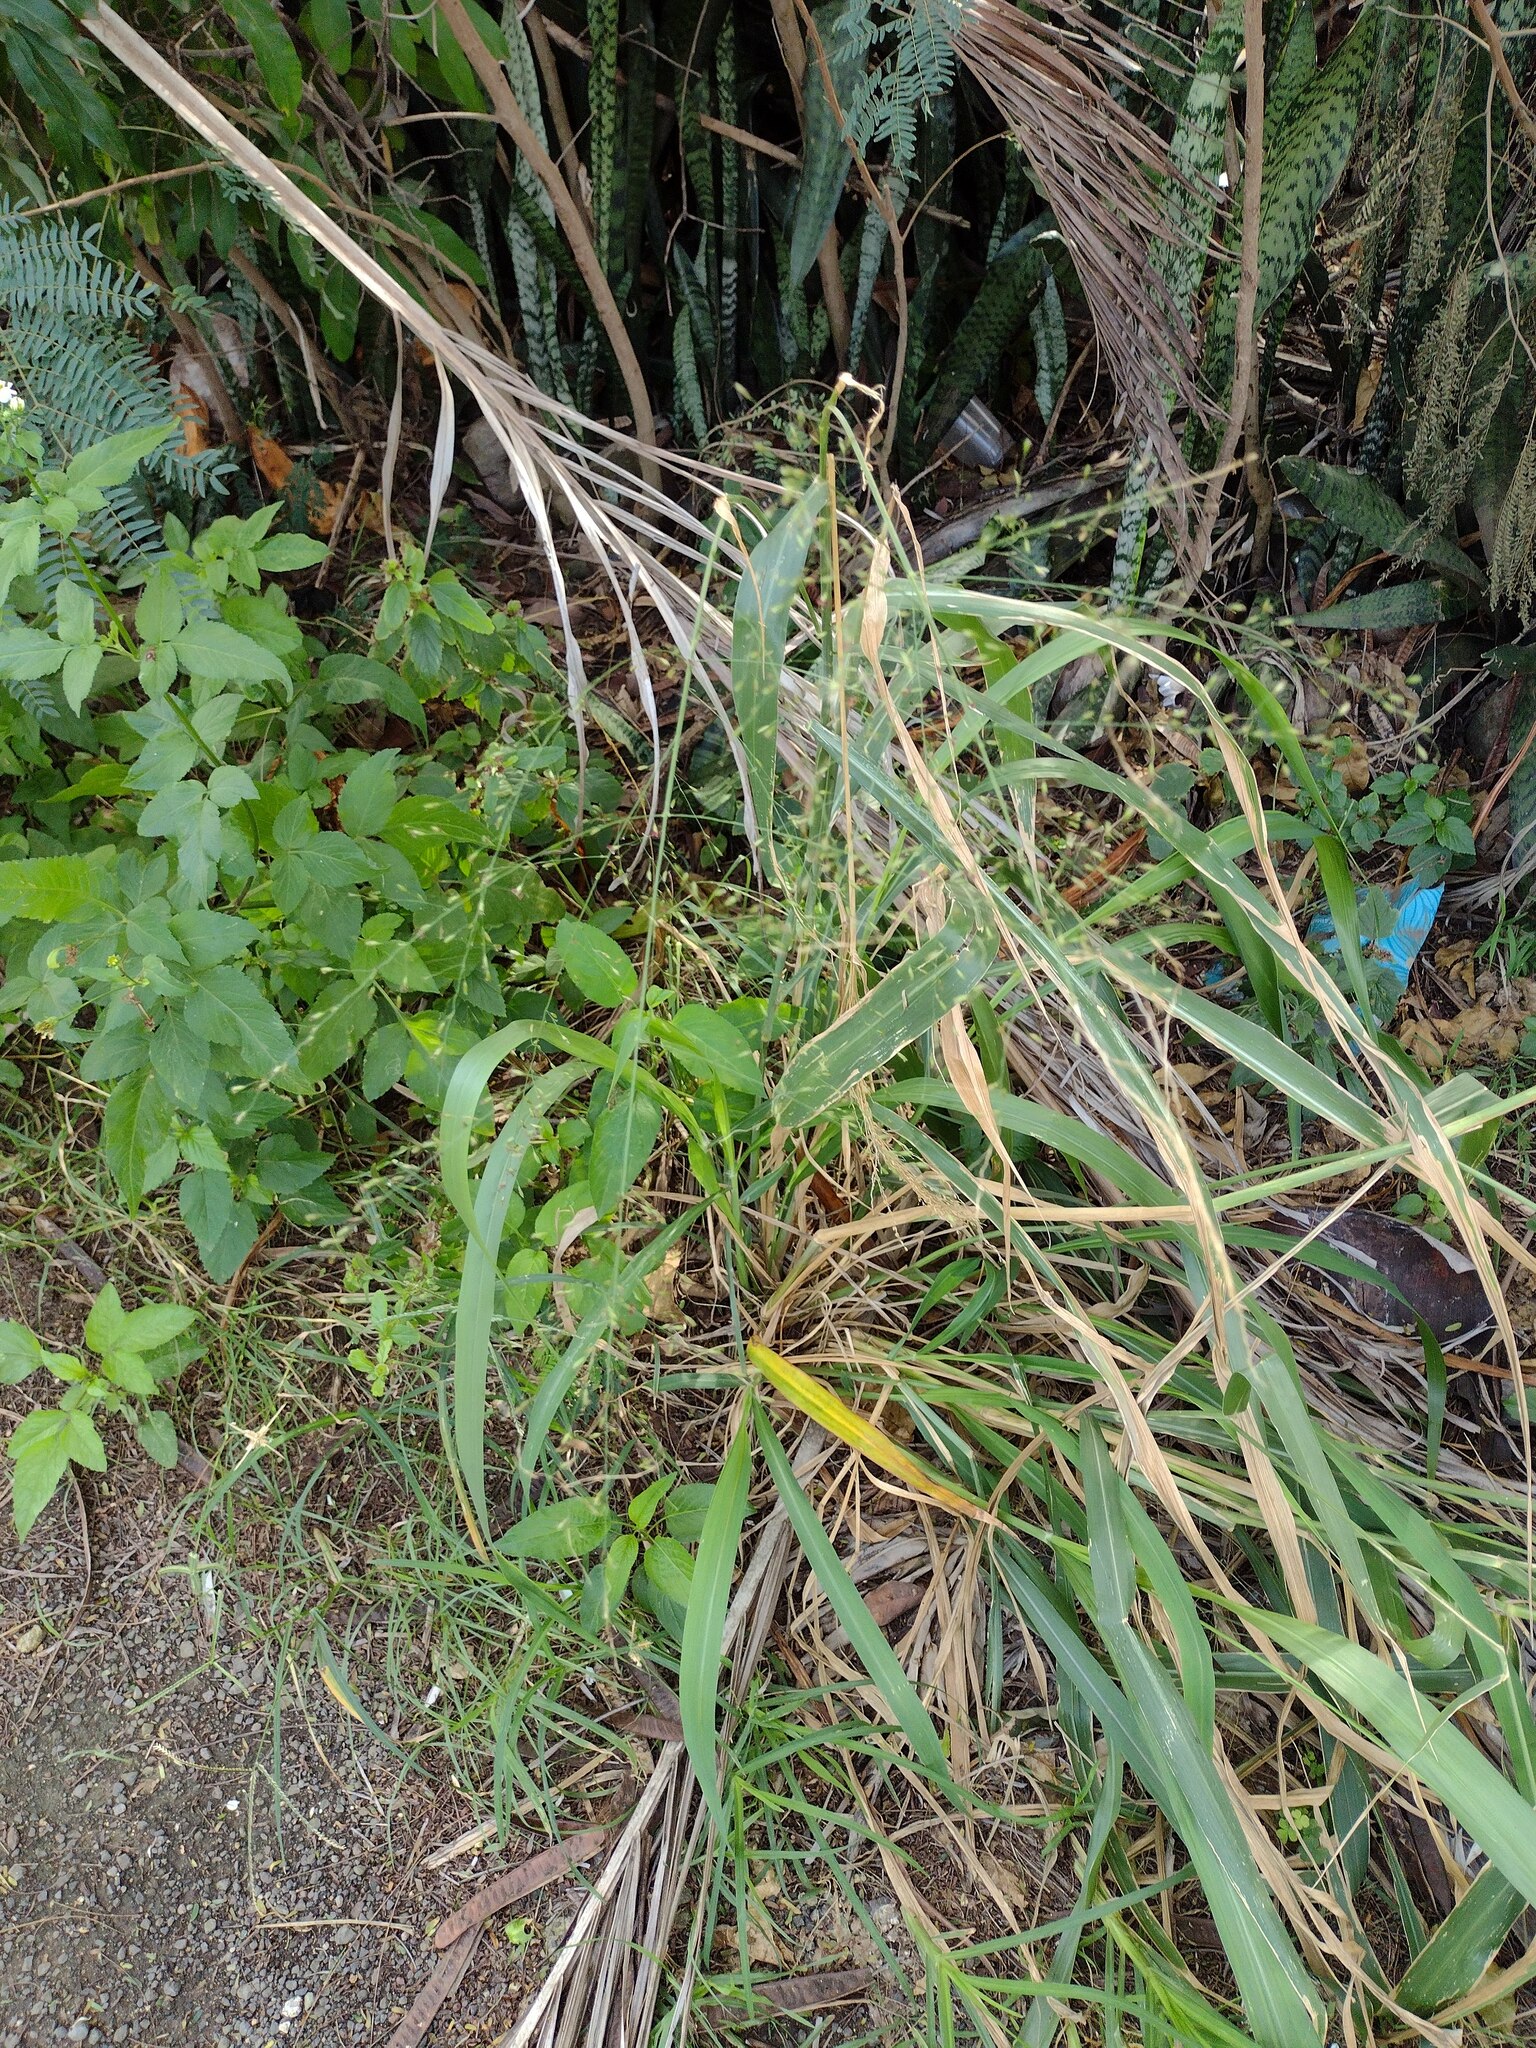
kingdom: Plantae
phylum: Tracheophyta
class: Liliopsida
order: Poales
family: Poaceae
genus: Megathyrsus
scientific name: Megathyrsus maximus
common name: Guineagrass
